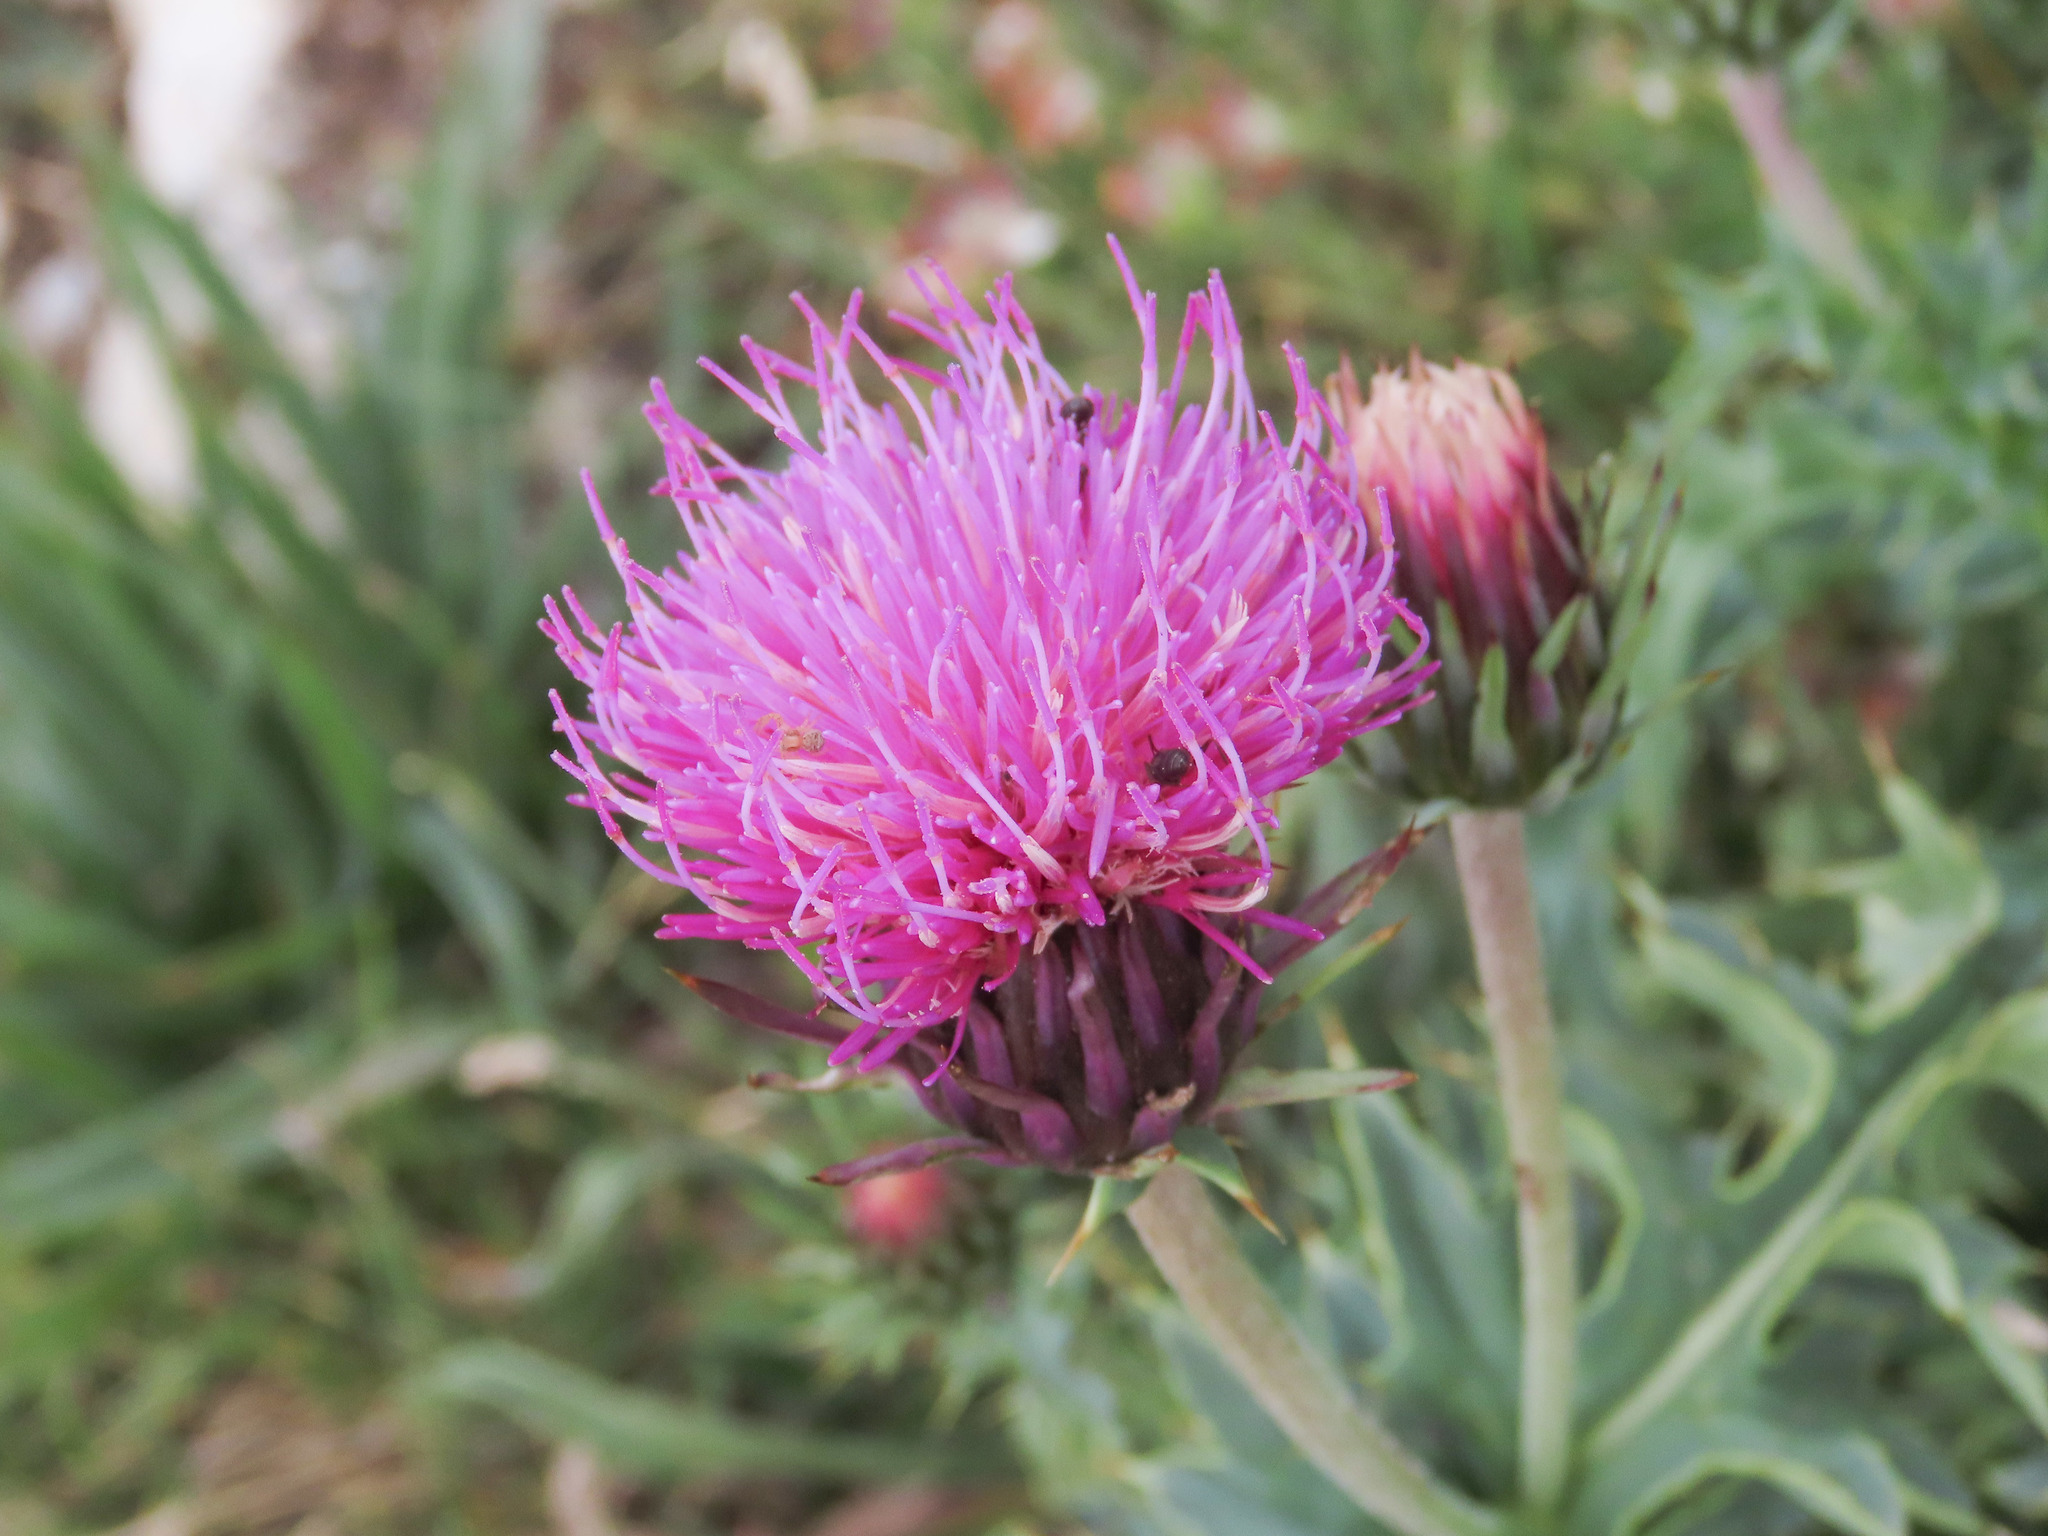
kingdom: Plantae
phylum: Tracheophyta
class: Magnoliopsida
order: Asterales
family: Asteraceae
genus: Carduus
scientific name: Carduus defloratus
